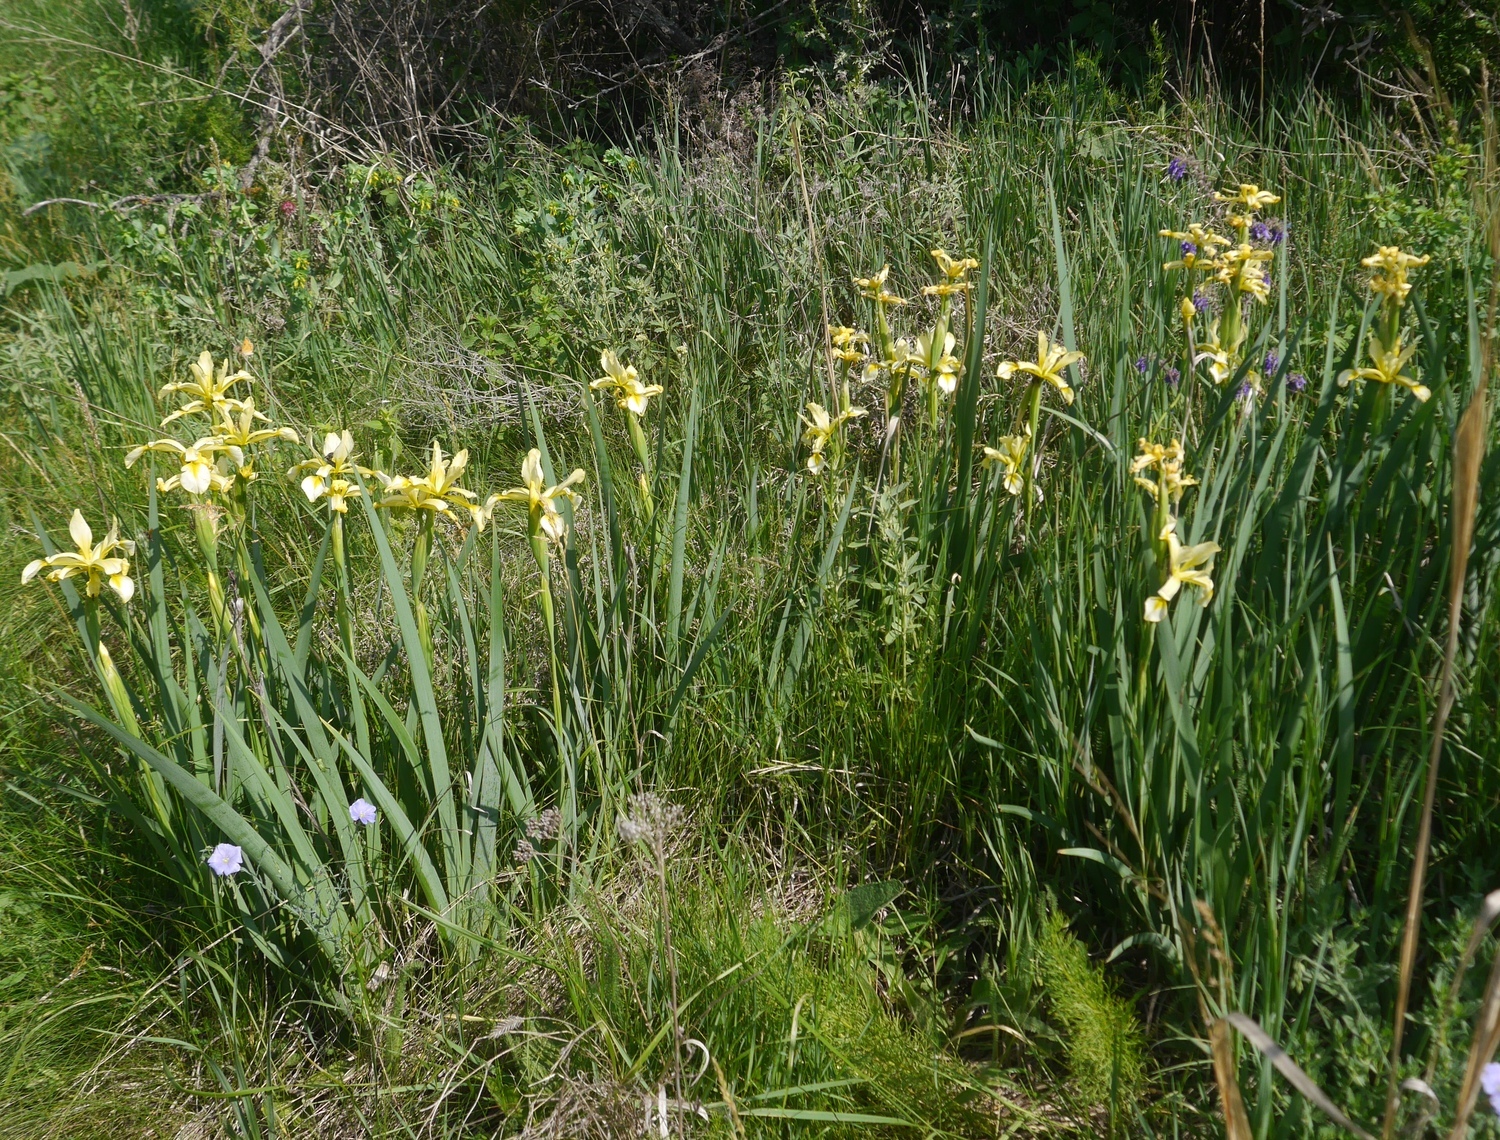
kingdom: Plantae
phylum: Tracheophyta
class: Liliopsida
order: Asparagales
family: Iridaceae
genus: Iris
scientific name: Iris halophila
